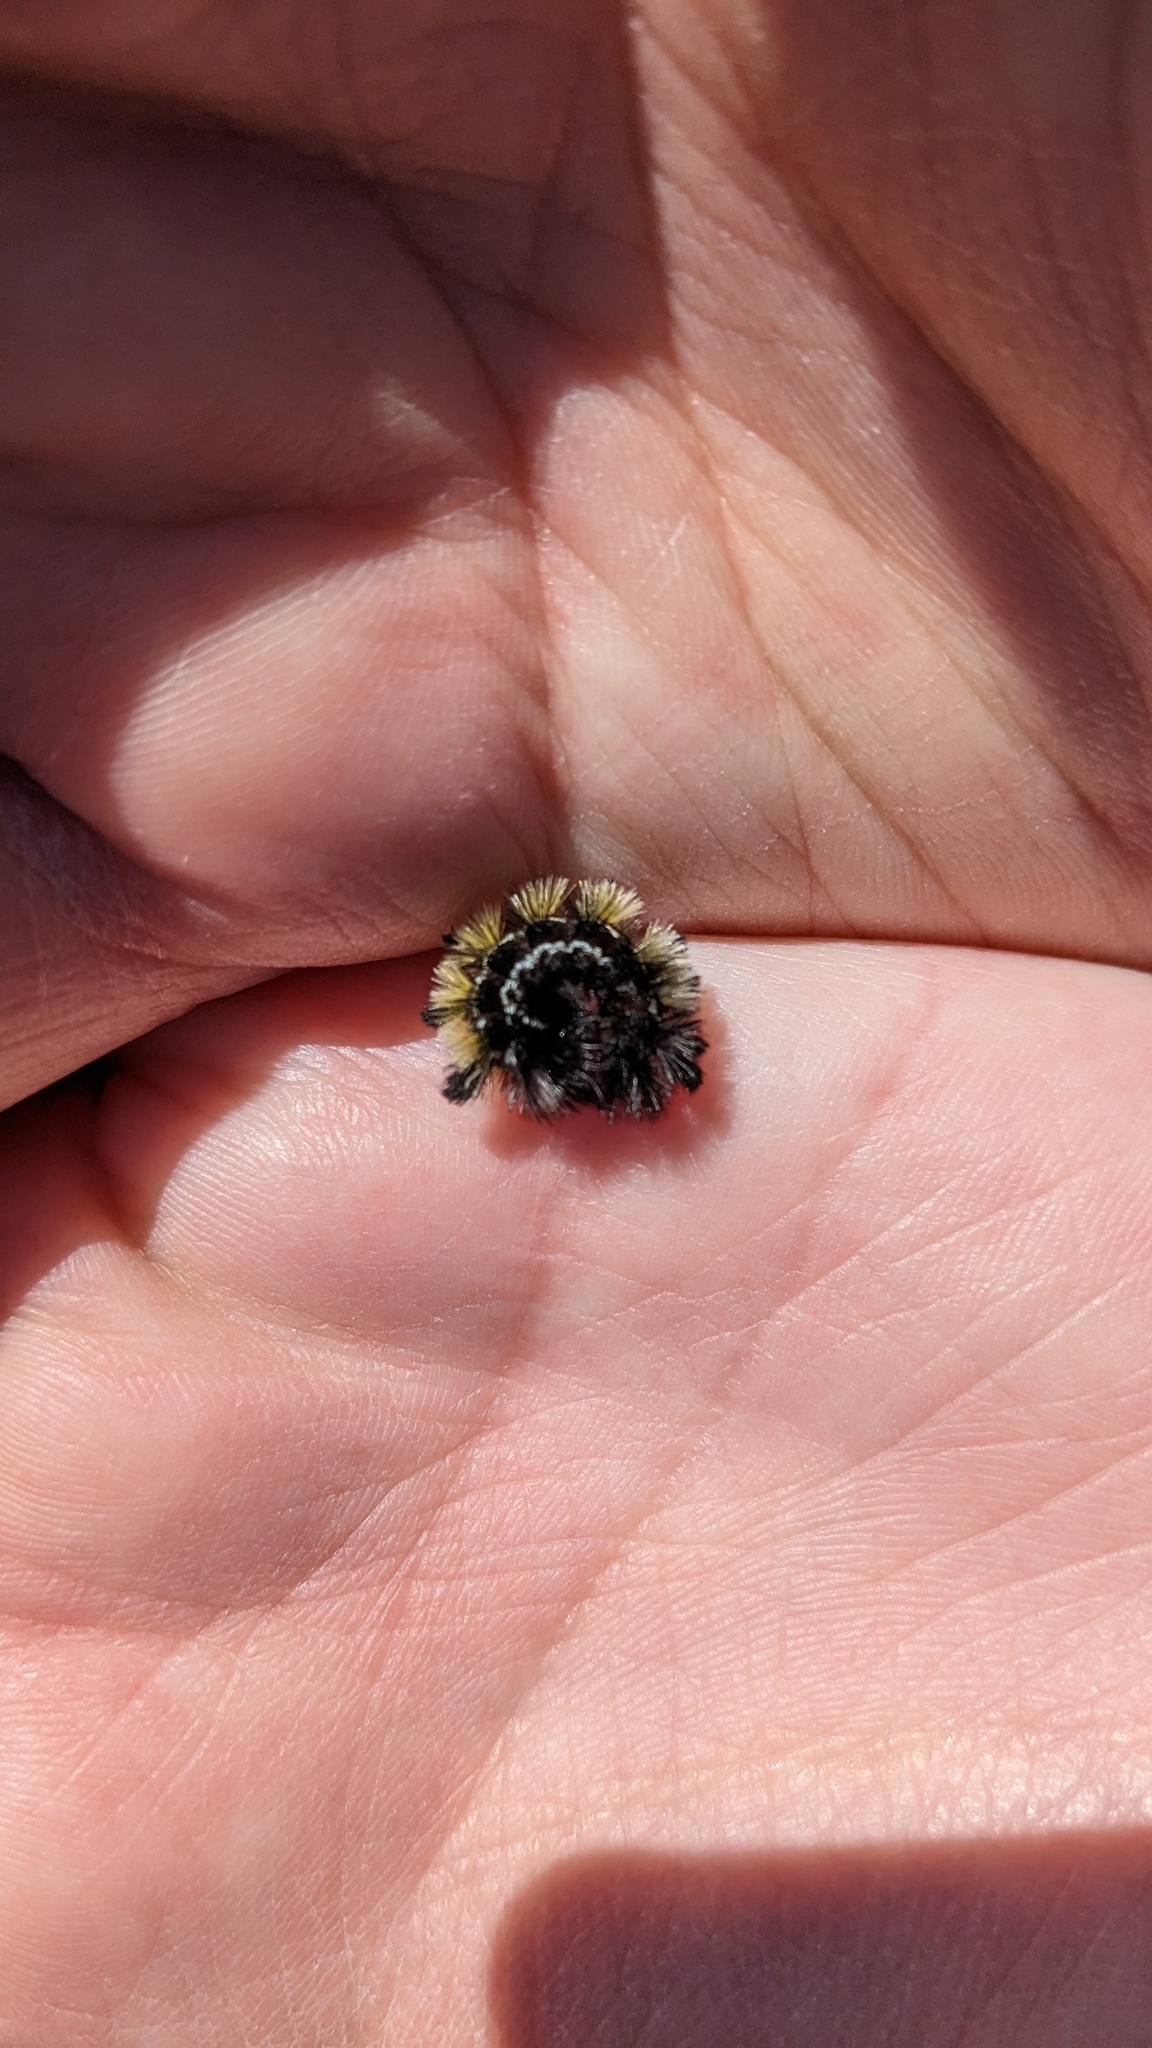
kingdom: Animalia
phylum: Arthropoda
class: Insecta
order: Lepidoptera
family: Erebidae
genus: Ctenucha
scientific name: Ctenucha virginica
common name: Virginia ctenucha moth
